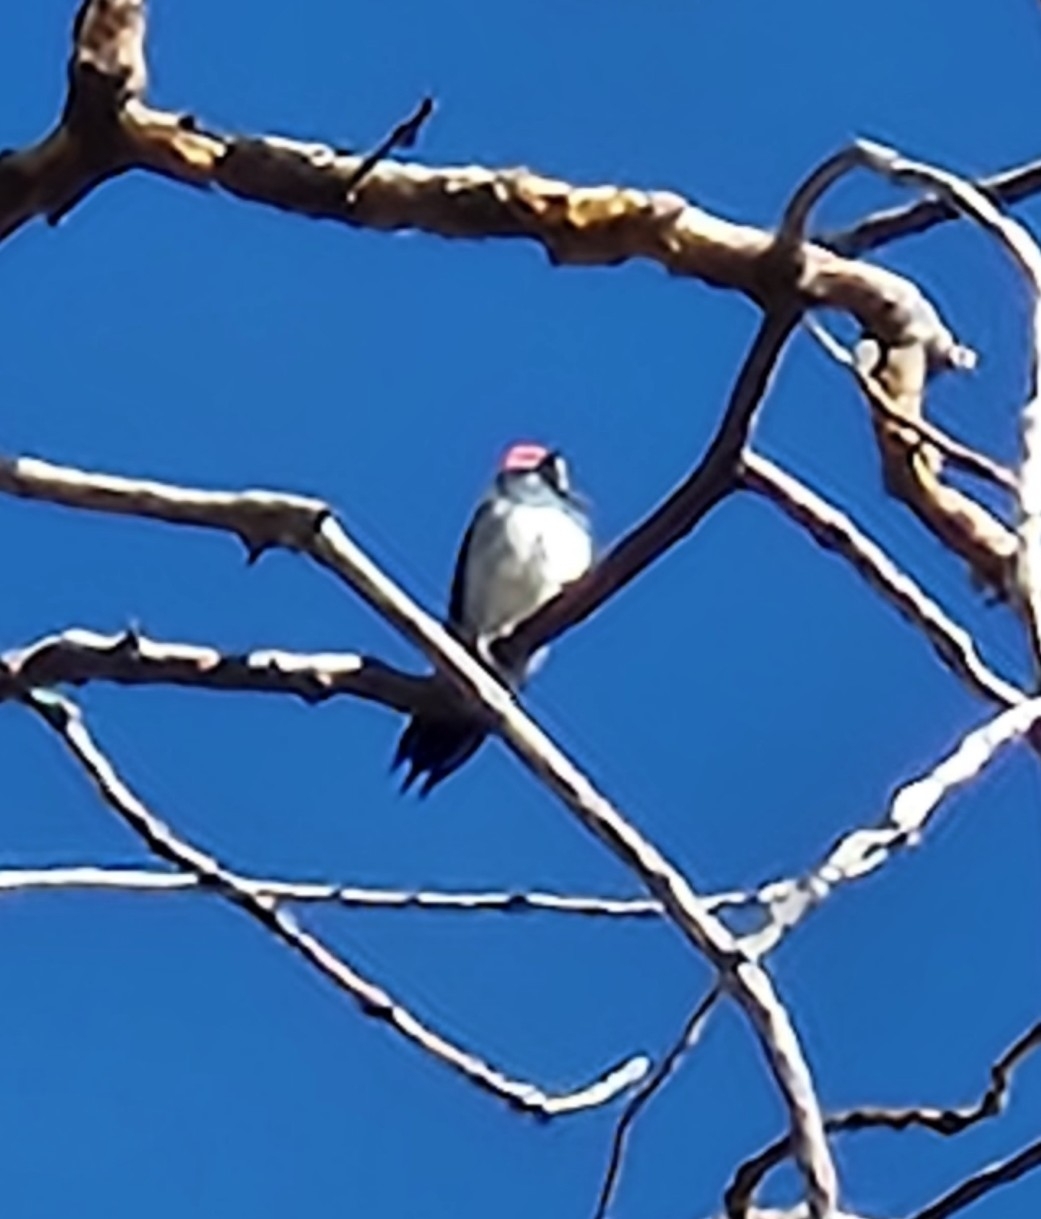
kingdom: Animalia
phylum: Chordata
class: Aves
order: Piciformes
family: Picidae
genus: Melanerpes
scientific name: Melanerpes formicivorus
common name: Acorn woodpecker
